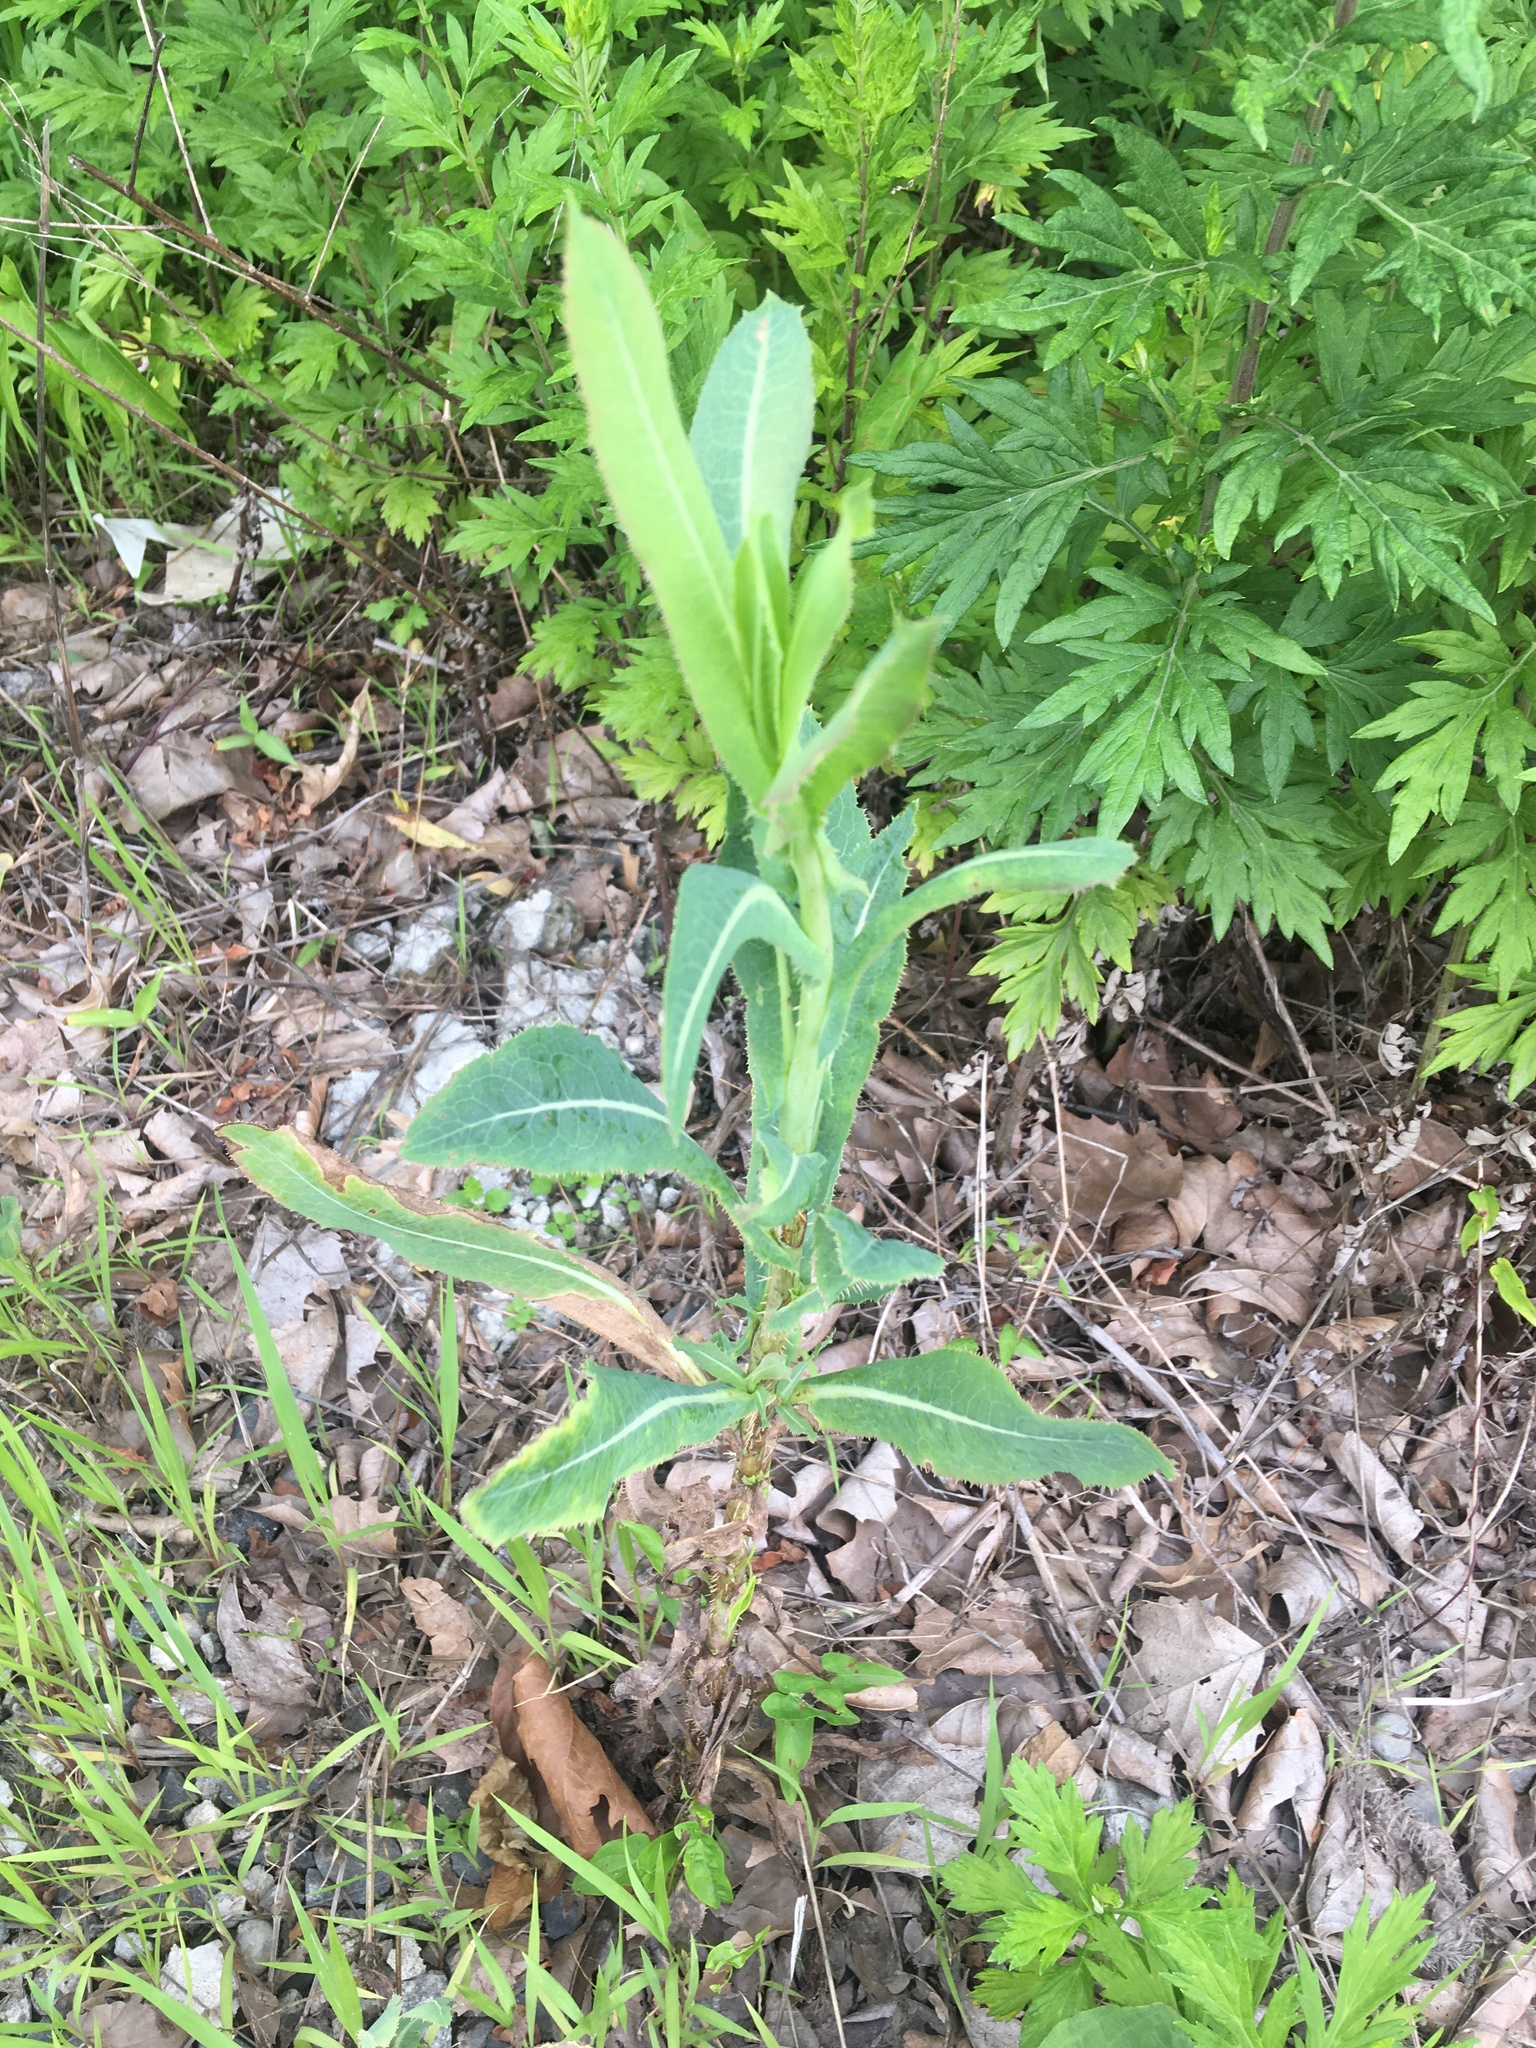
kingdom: Plantae
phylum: Tracheophyta
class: Magnoliopsida
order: Asterales
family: Asteraceae
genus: Lactuca
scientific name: Lactuca serriola
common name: Prickly lettuce
